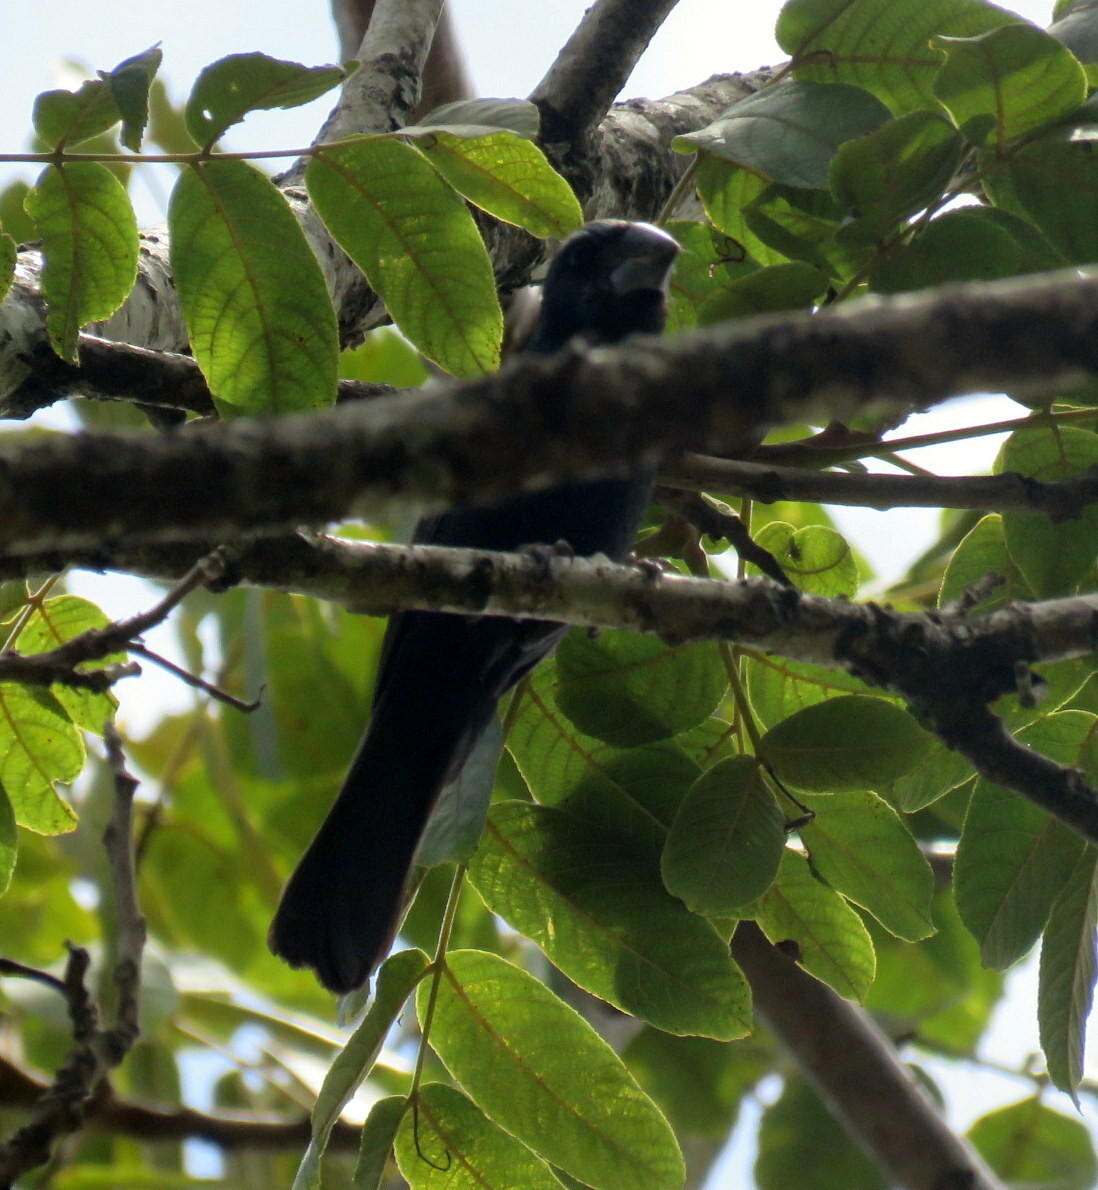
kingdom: Animalia
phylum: Chordata
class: Aves
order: Passeriformes
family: Cardinalidae
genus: Cyanoloxia
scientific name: Cyanoloxia brissonii
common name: Ultramarine grosbeak
